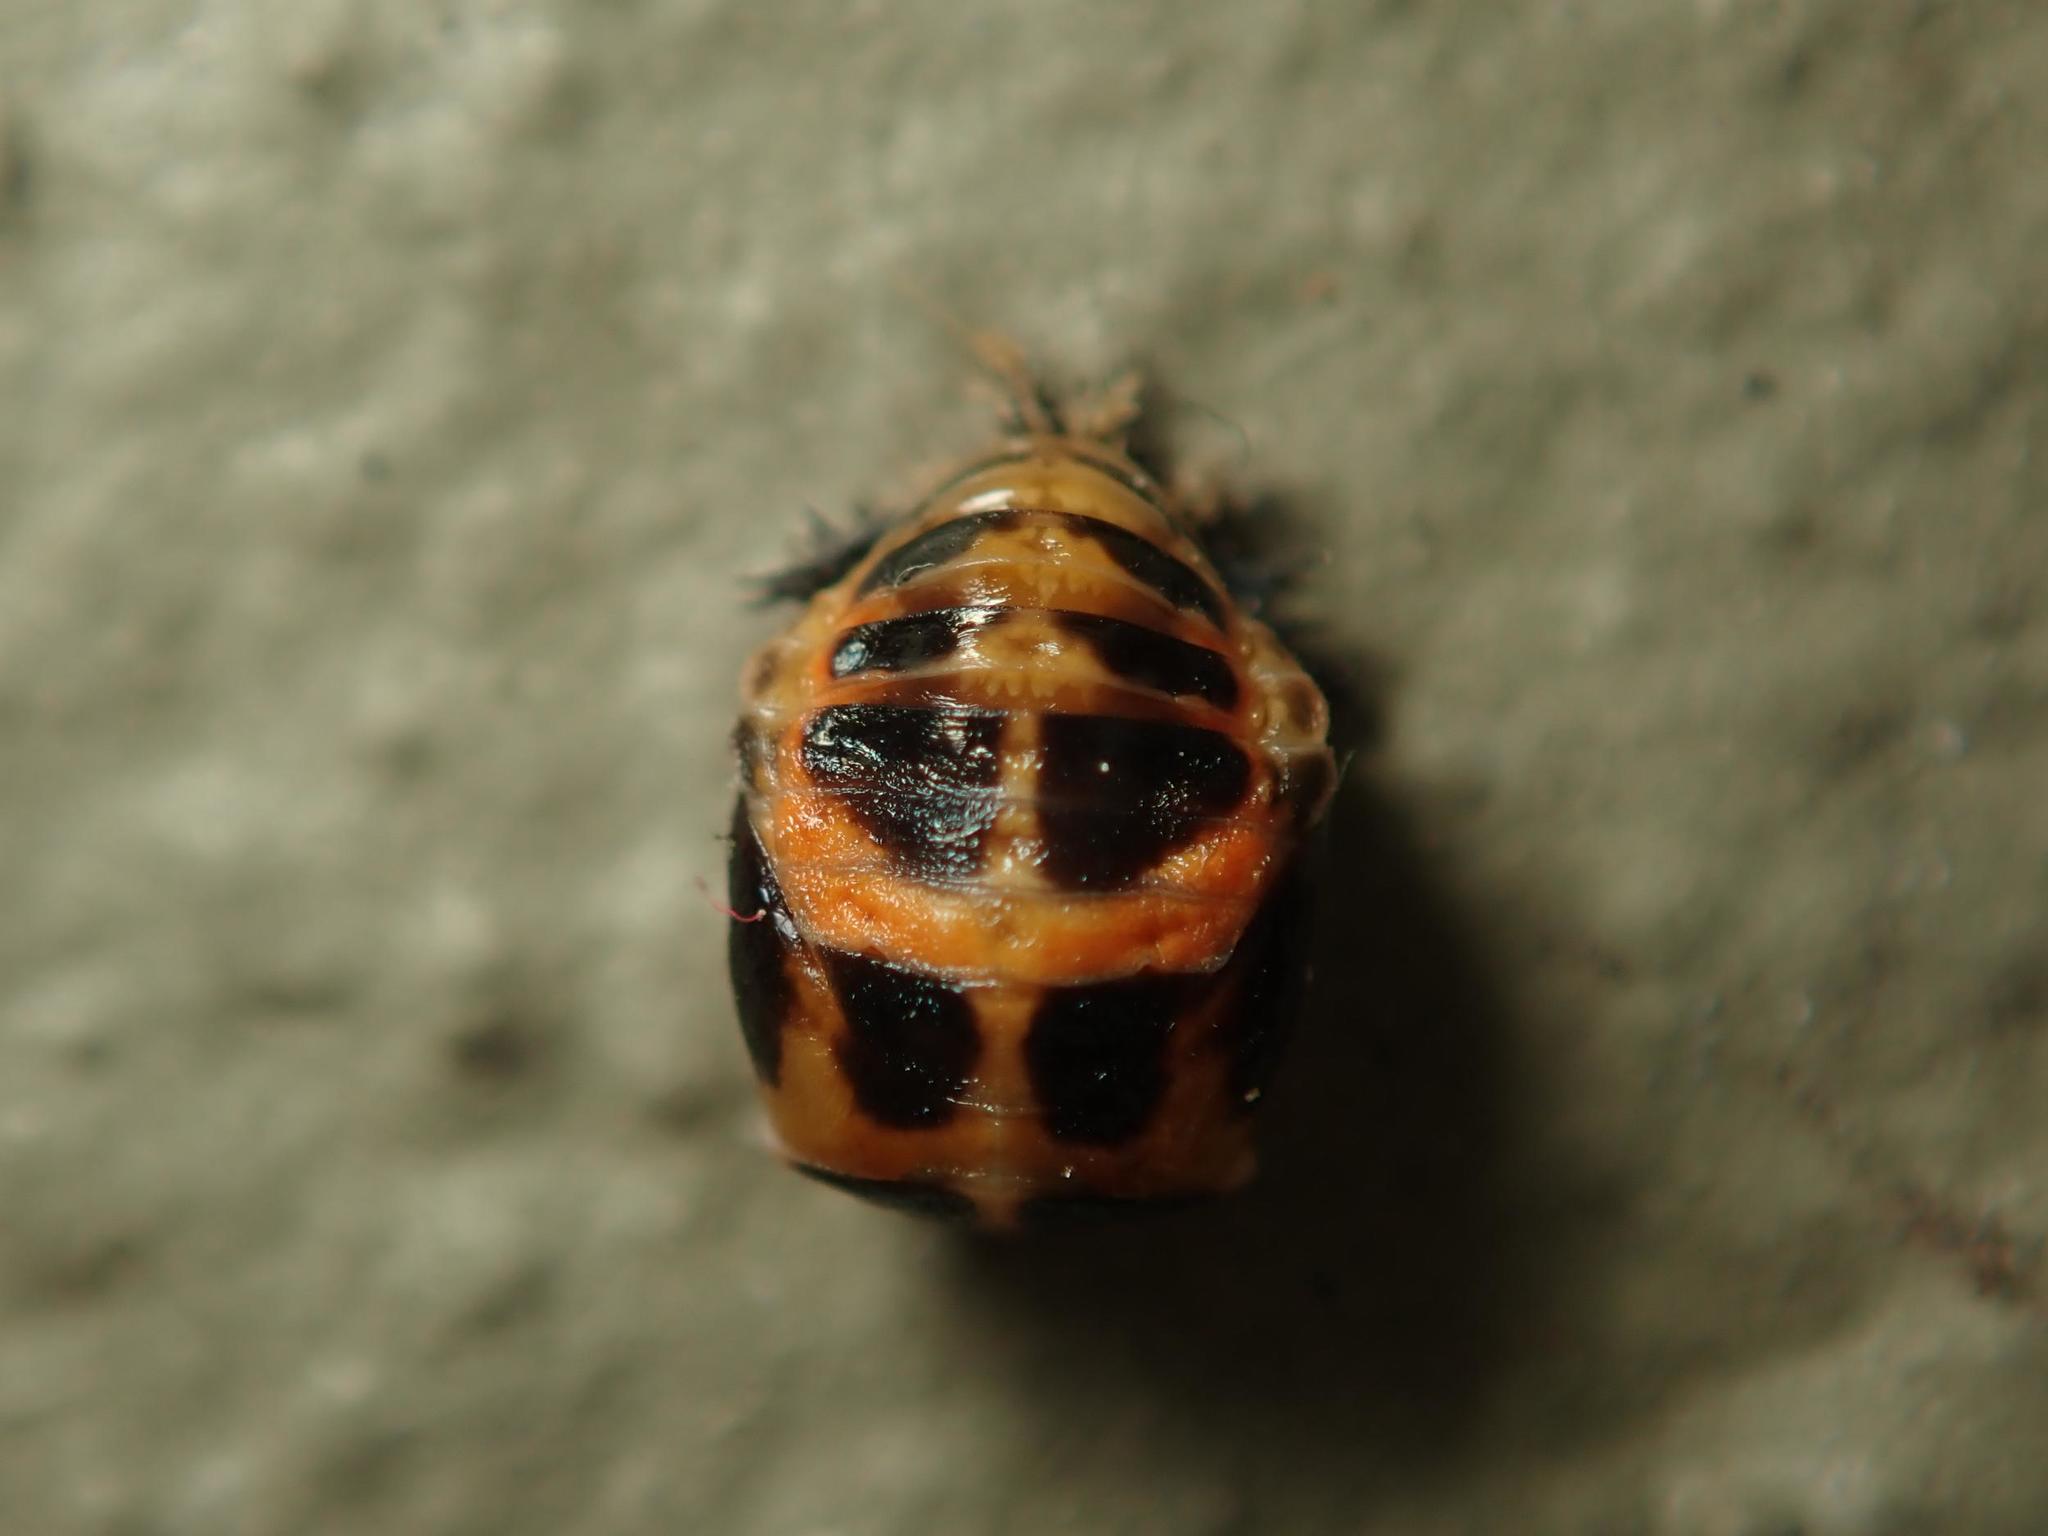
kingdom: Animalia
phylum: Arthropoda
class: Insecta
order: Coleoptera
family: Coccinellidae
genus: Harmonia
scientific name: Harmonia axyridis
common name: Harlequin ladybird
